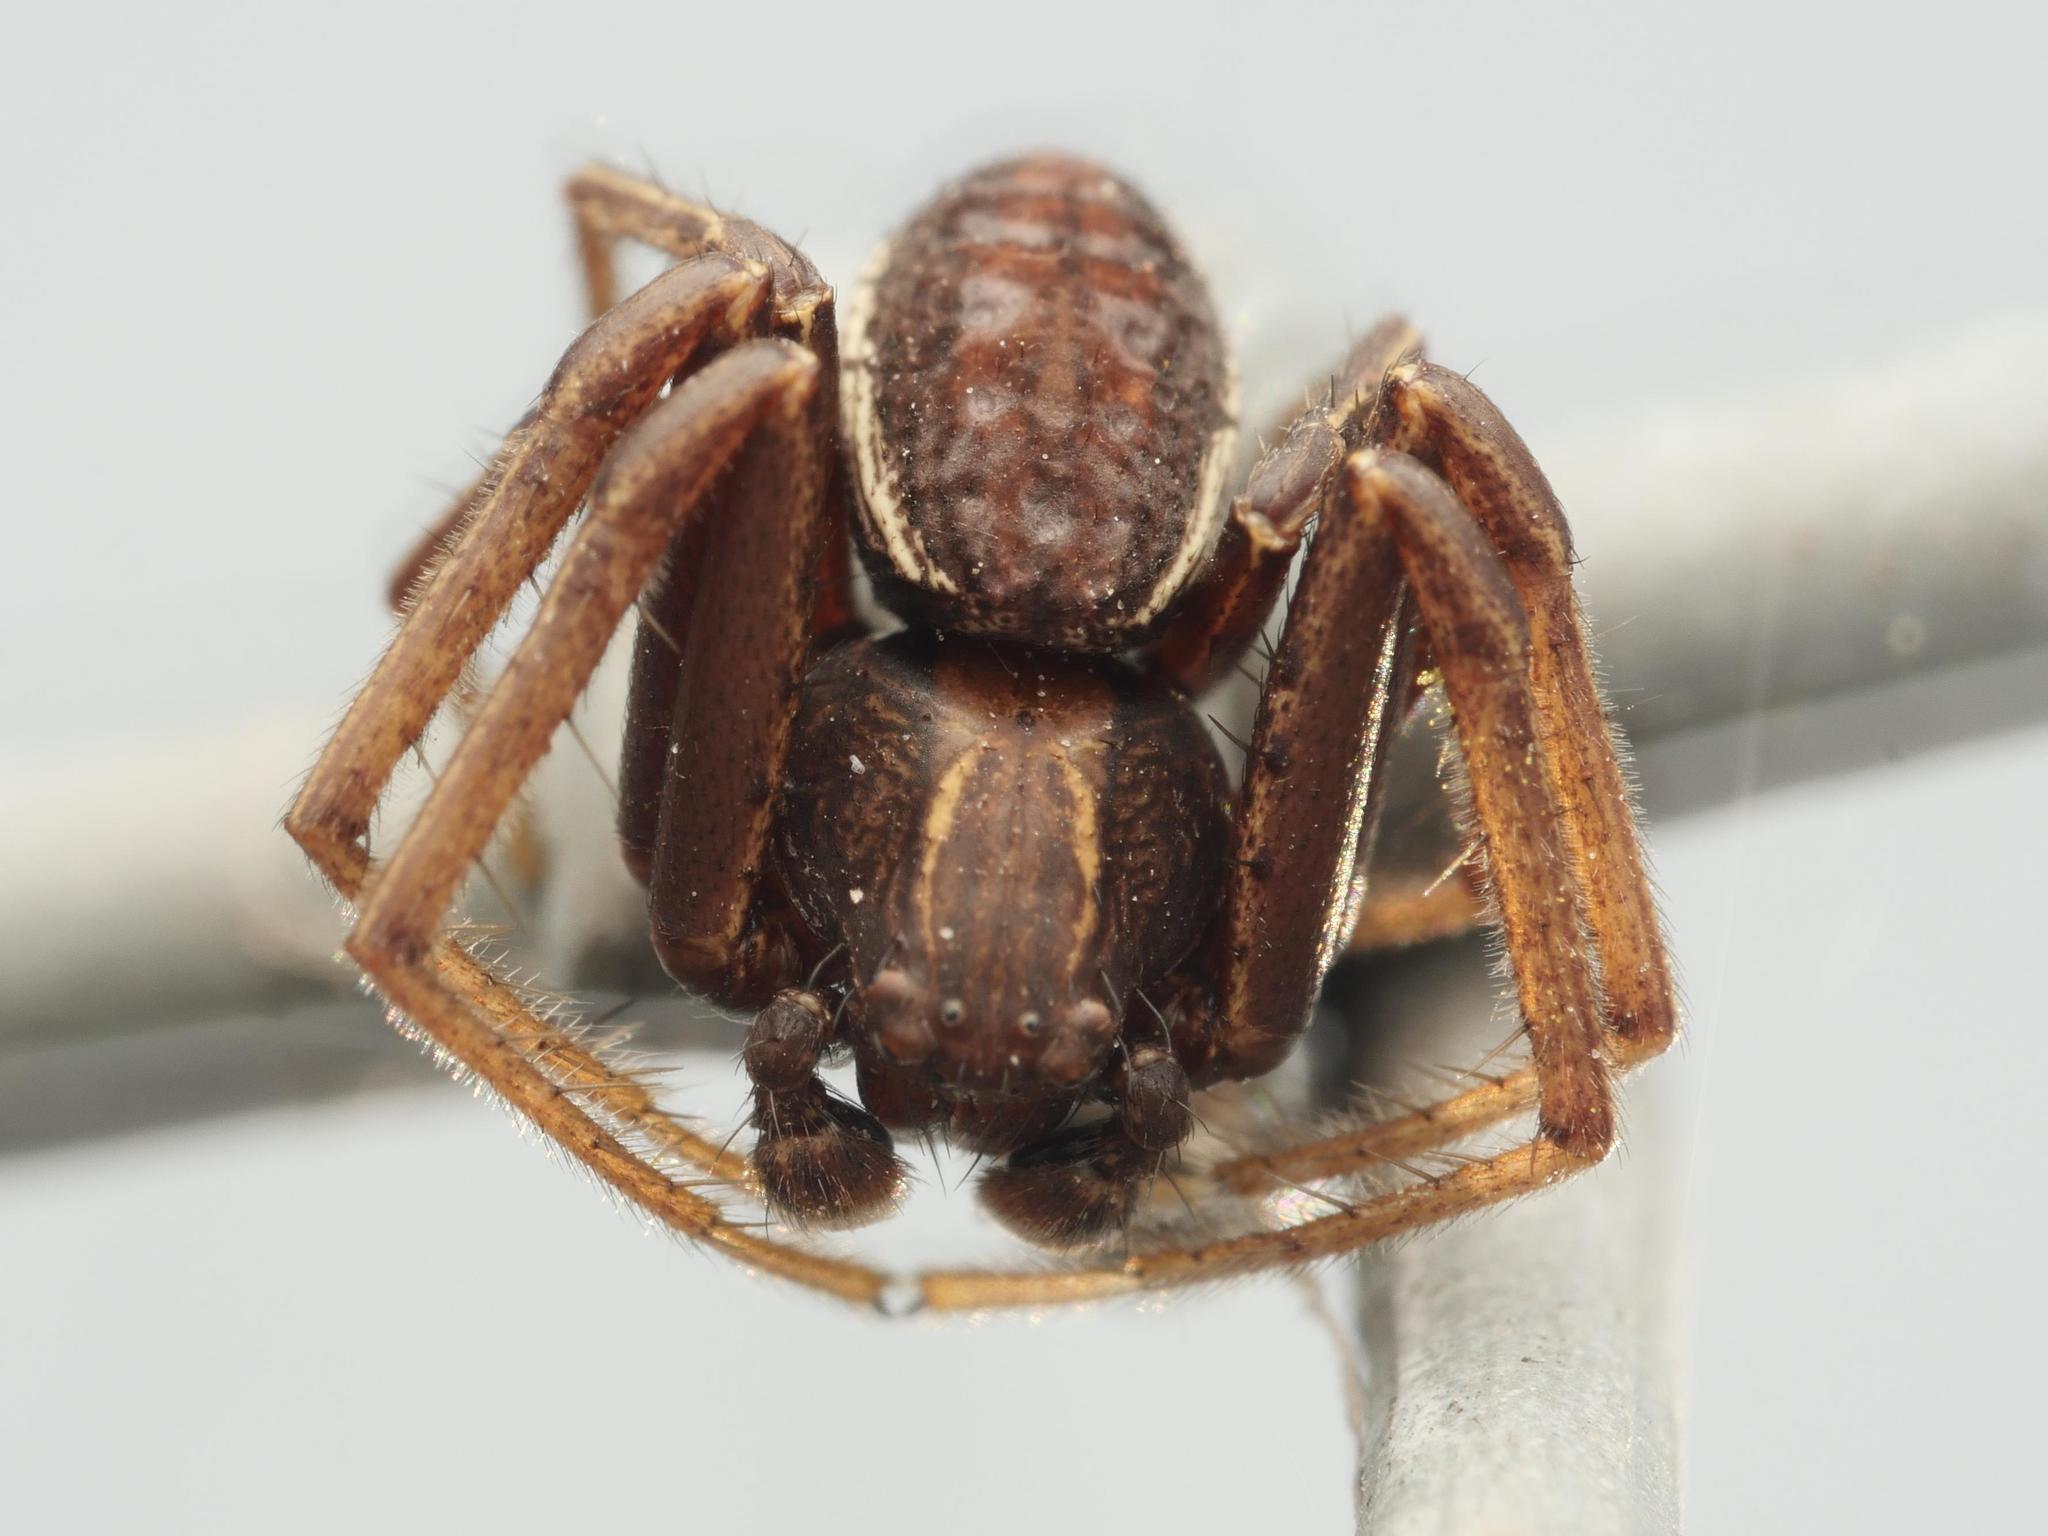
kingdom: Animalia
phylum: Arthropoda
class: Arachnida
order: Araneae
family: Thomisidae
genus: Spiracme
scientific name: Spiracme striatipes
